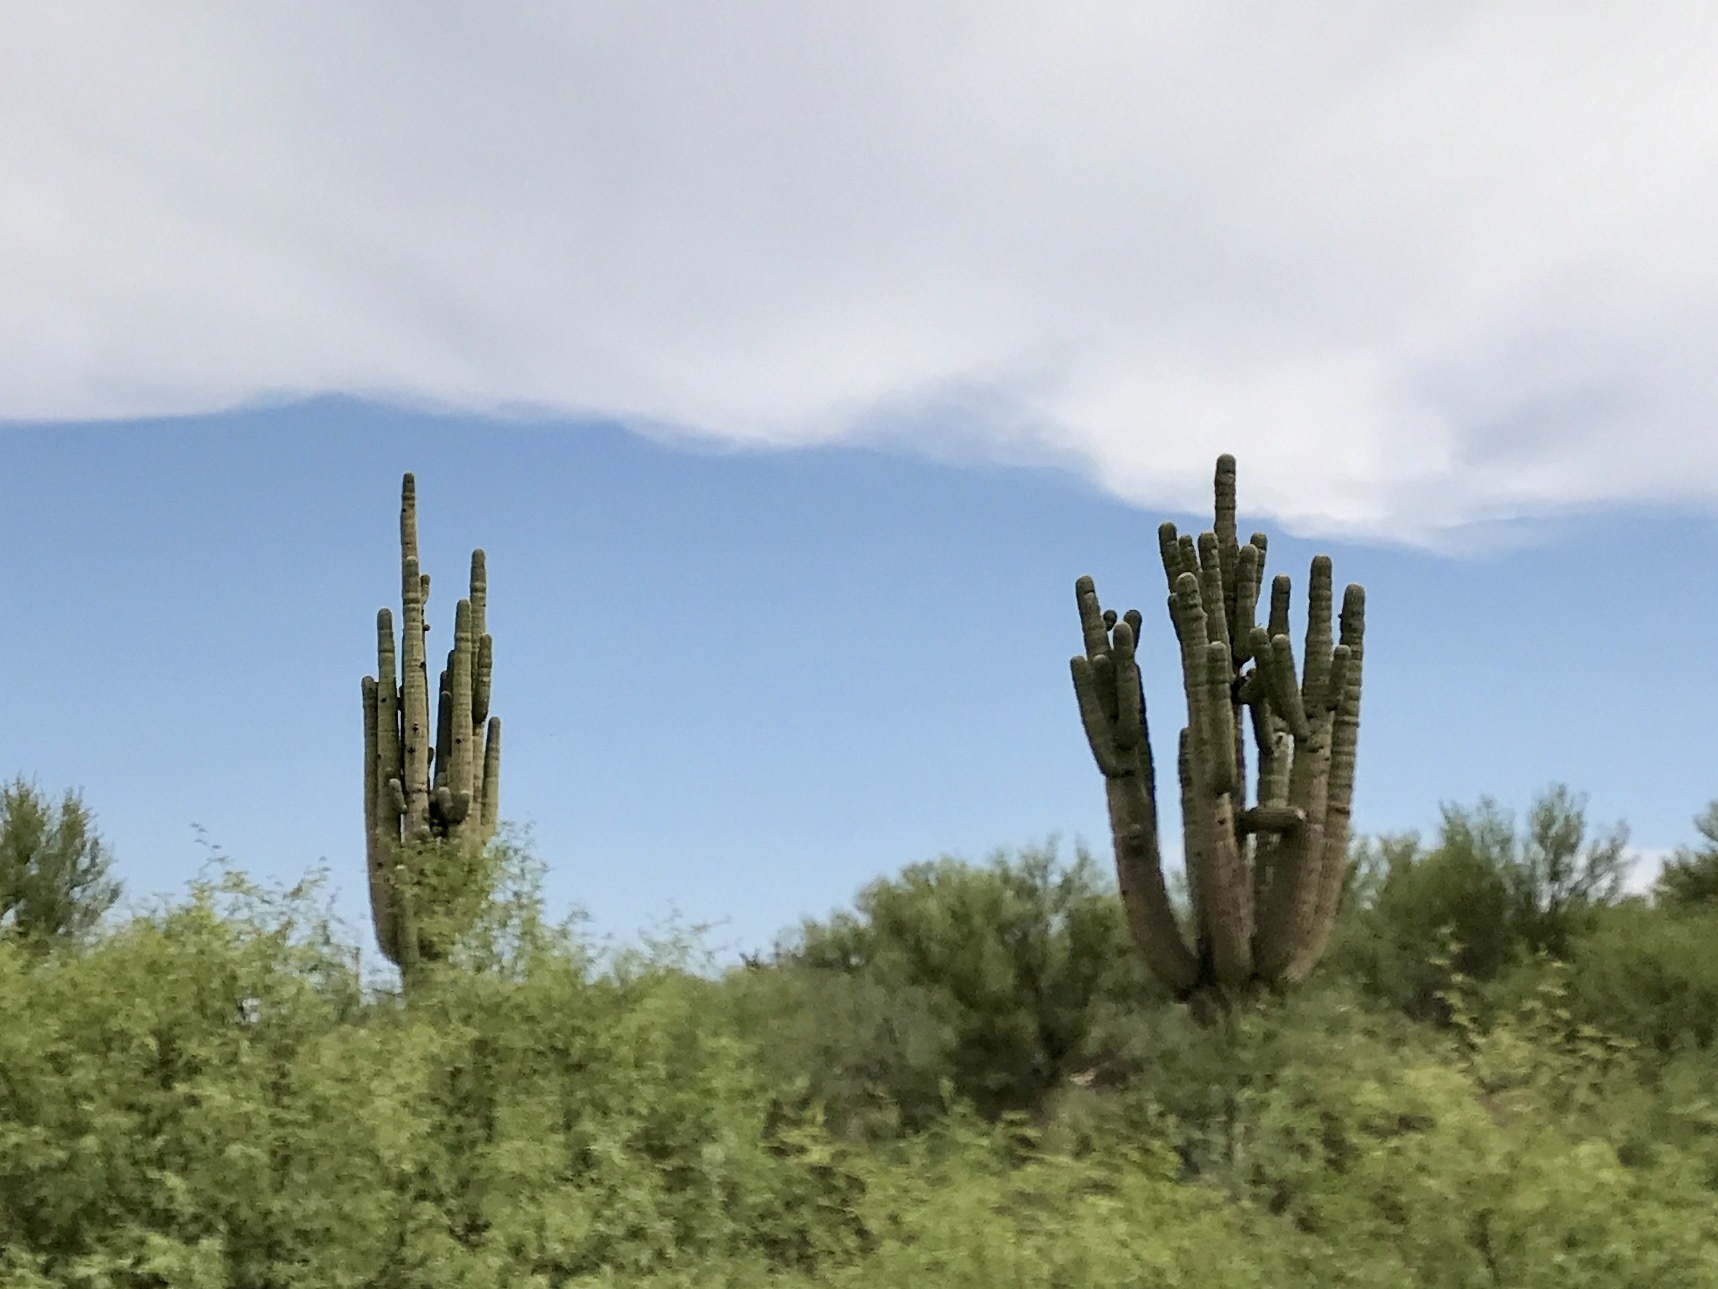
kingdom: Plantae
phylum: Tracheophyta
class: Magnoliopsida
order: Caryophyllales
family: Cactaceae
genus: Carnegiea
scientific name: Carnegiea gigantea
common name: Saguaro
